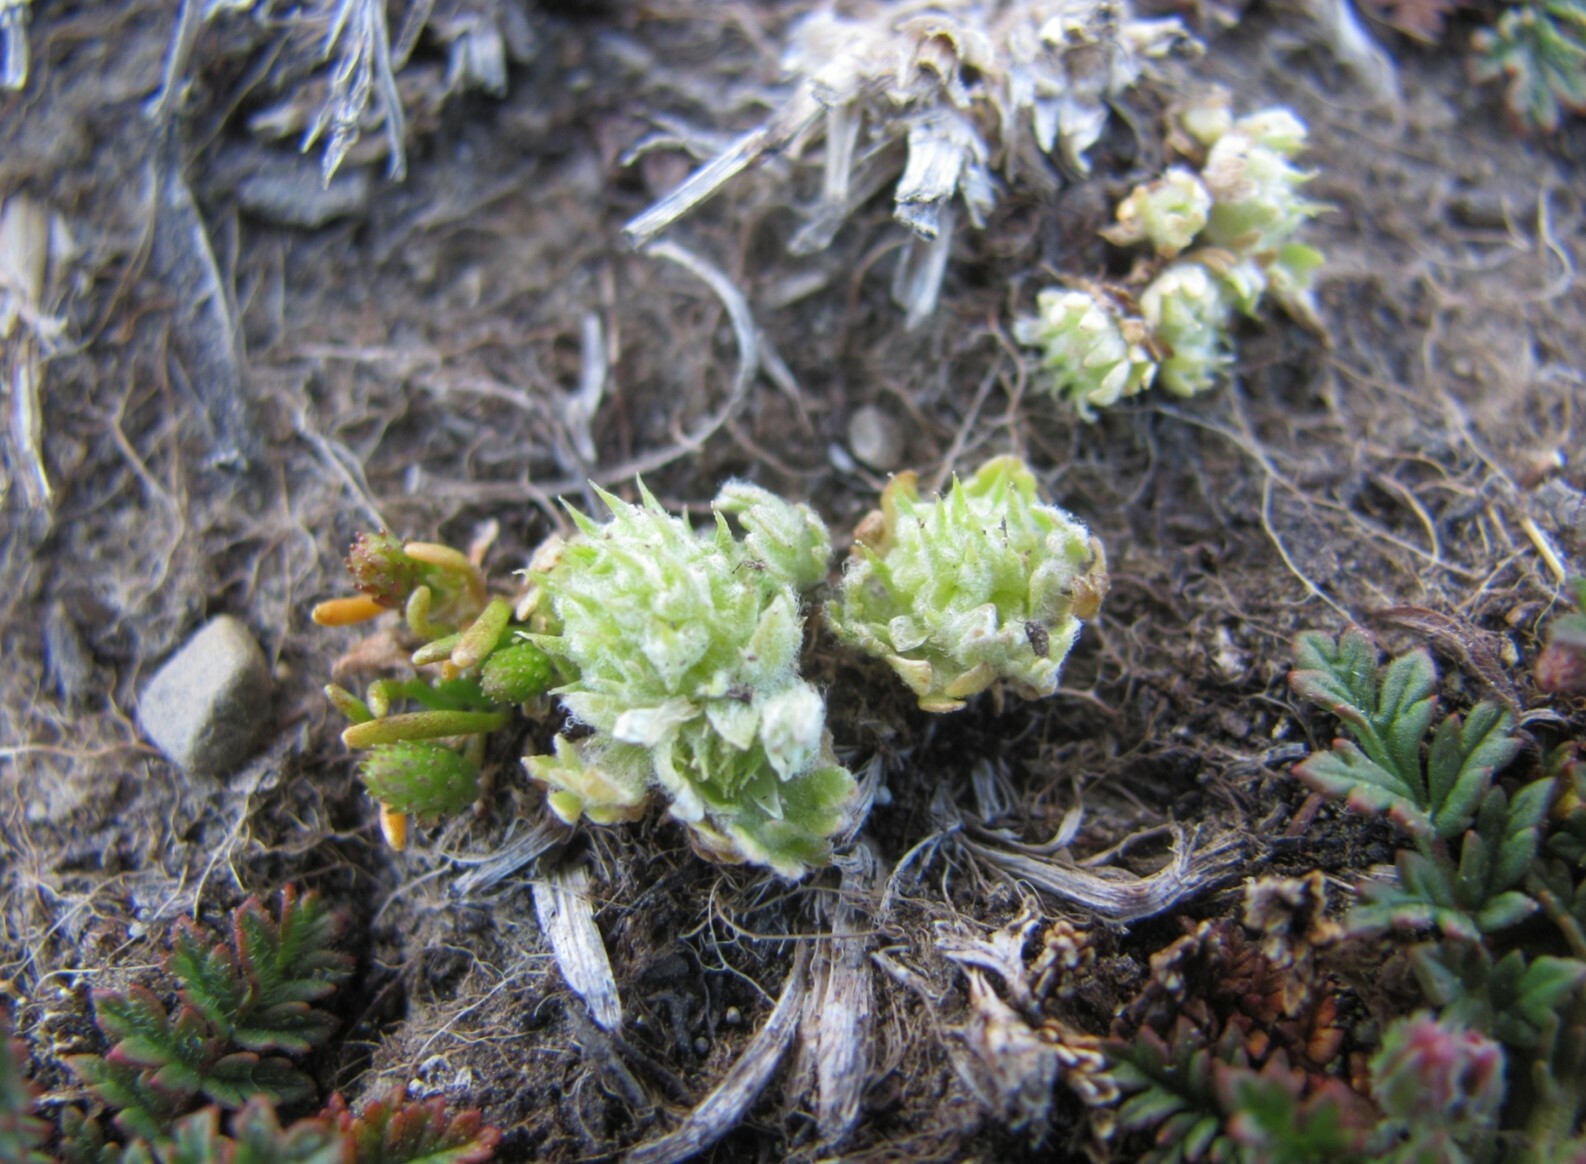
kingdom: Plantae
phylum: Tracheophyta
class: Magnoliopsida
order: Ranunculales
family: Ranunculaceae
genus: Ceratocephala
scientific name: Ceratocephala pungens
